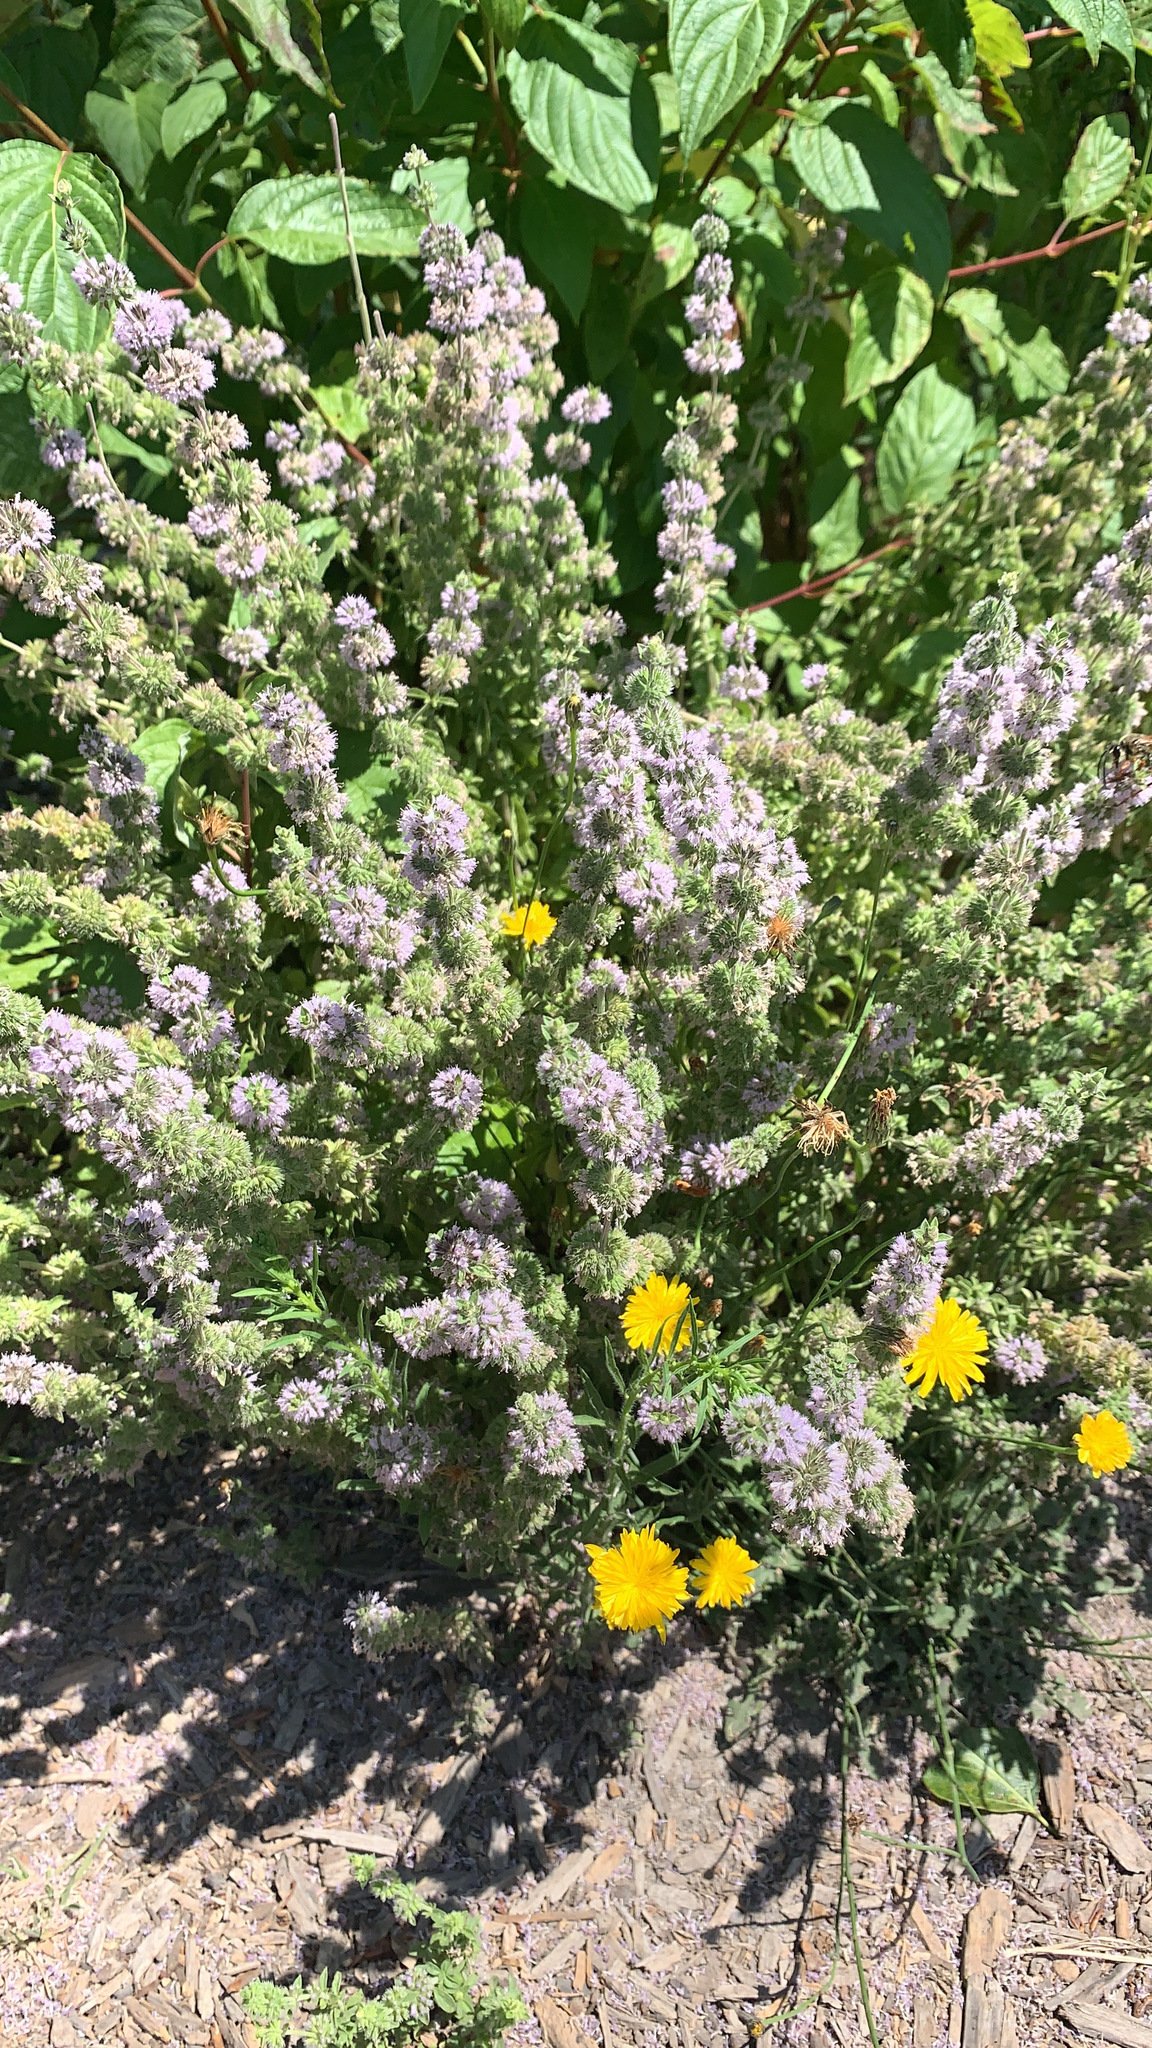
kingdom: Plantae
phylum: Tracheophyta
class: Magnoliopsida
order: Lamiales
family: Lamiaceae
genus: Mentha
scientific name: Mentha pulegium
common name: Pennyroyal
